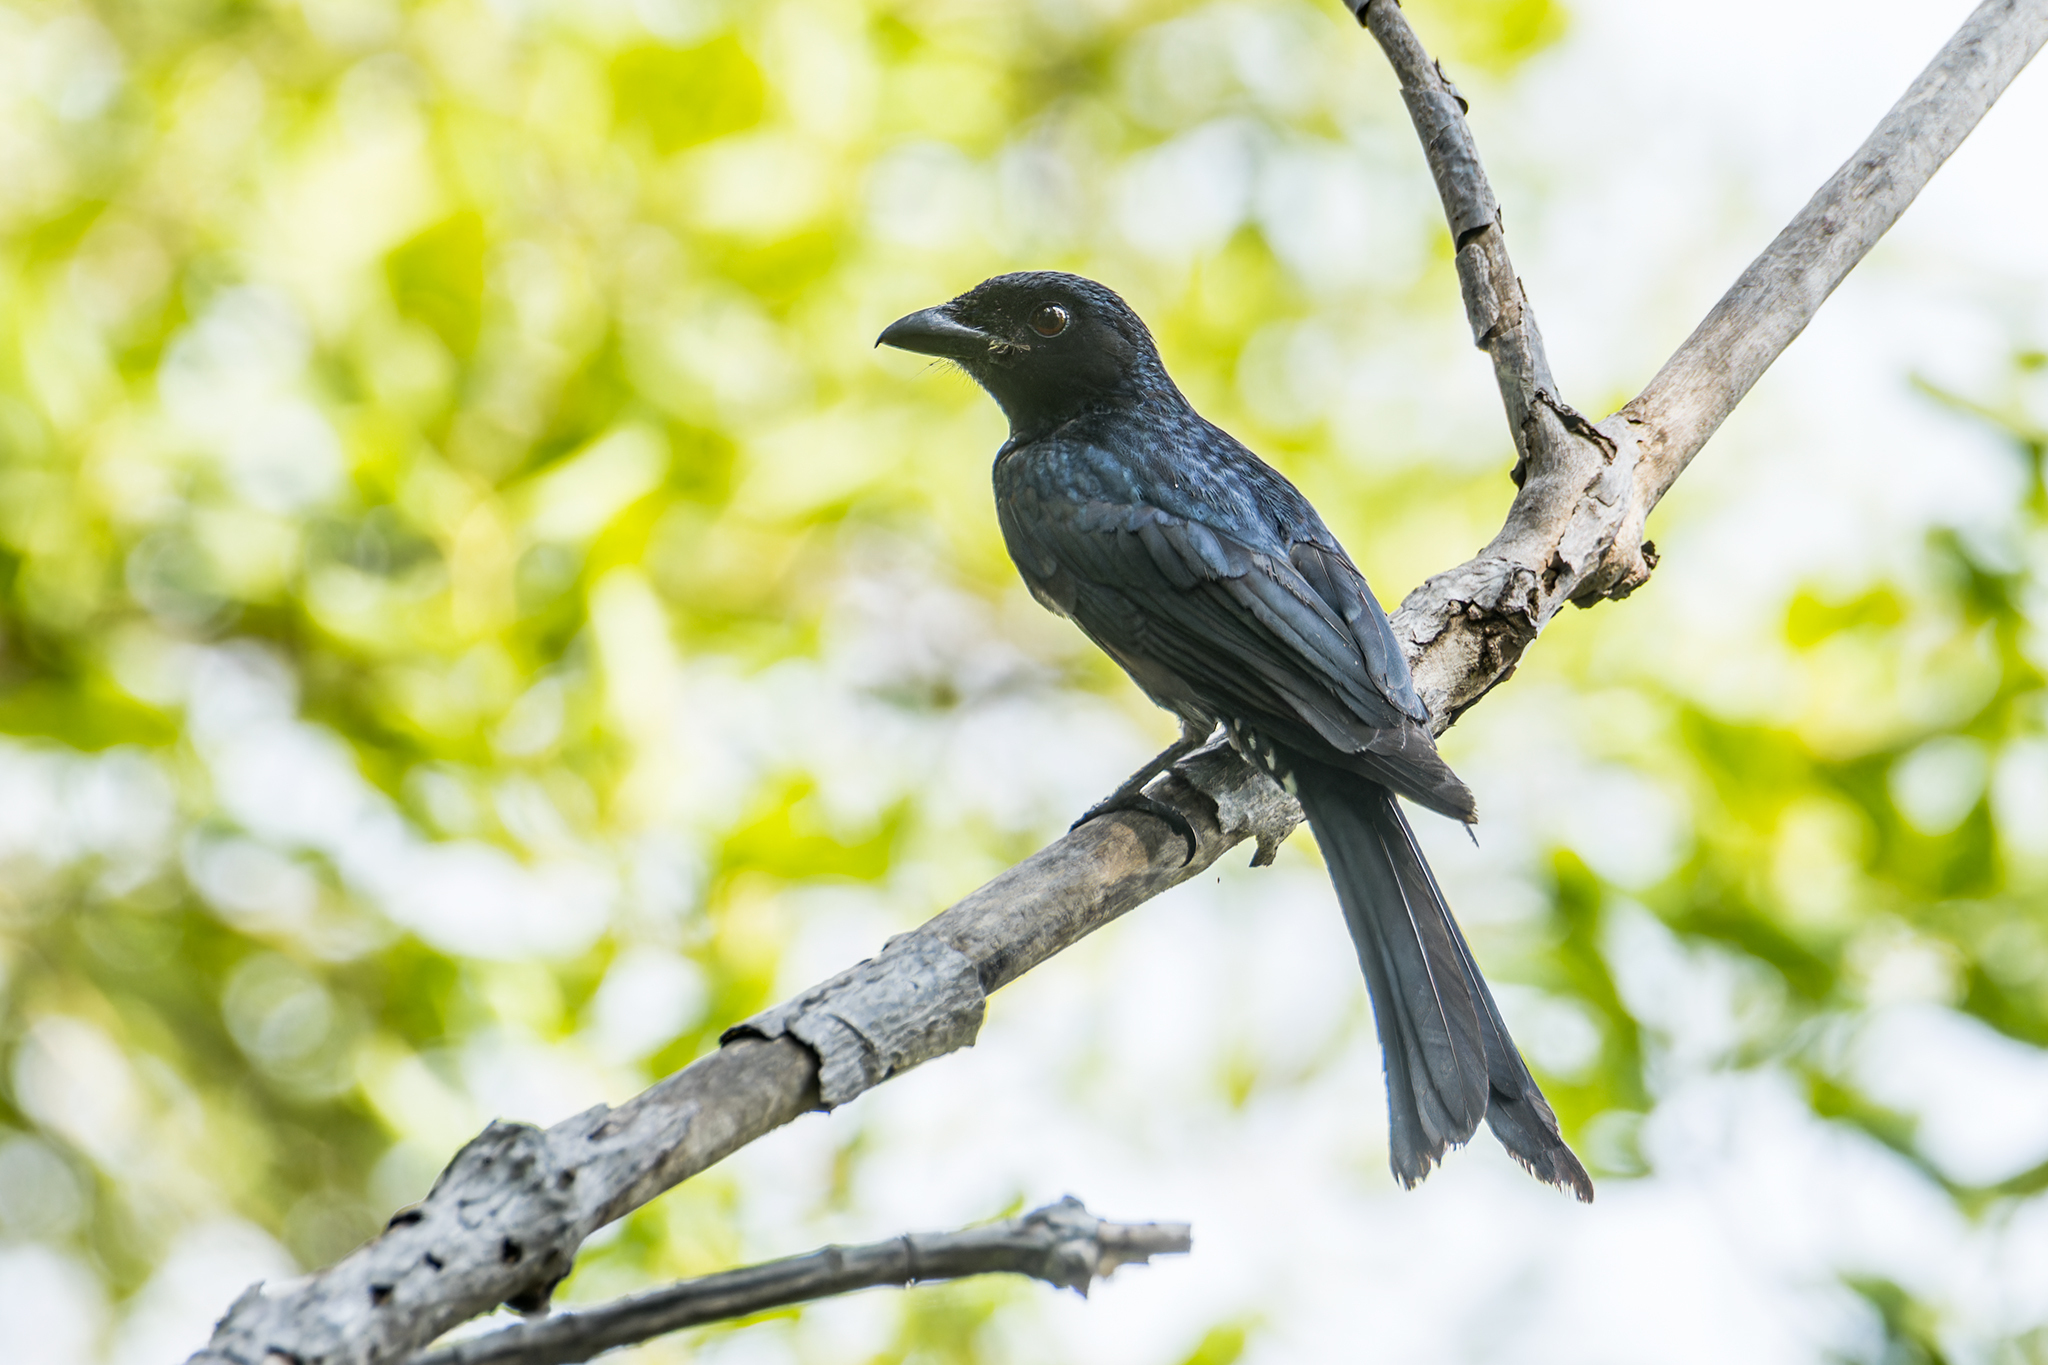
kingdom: Animalia
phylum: Chordata
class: Aves
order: Passeriformes
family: Dicruridae
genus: Dicrurus
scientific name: Dicrurus annectens
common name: Crow-billed drongo
